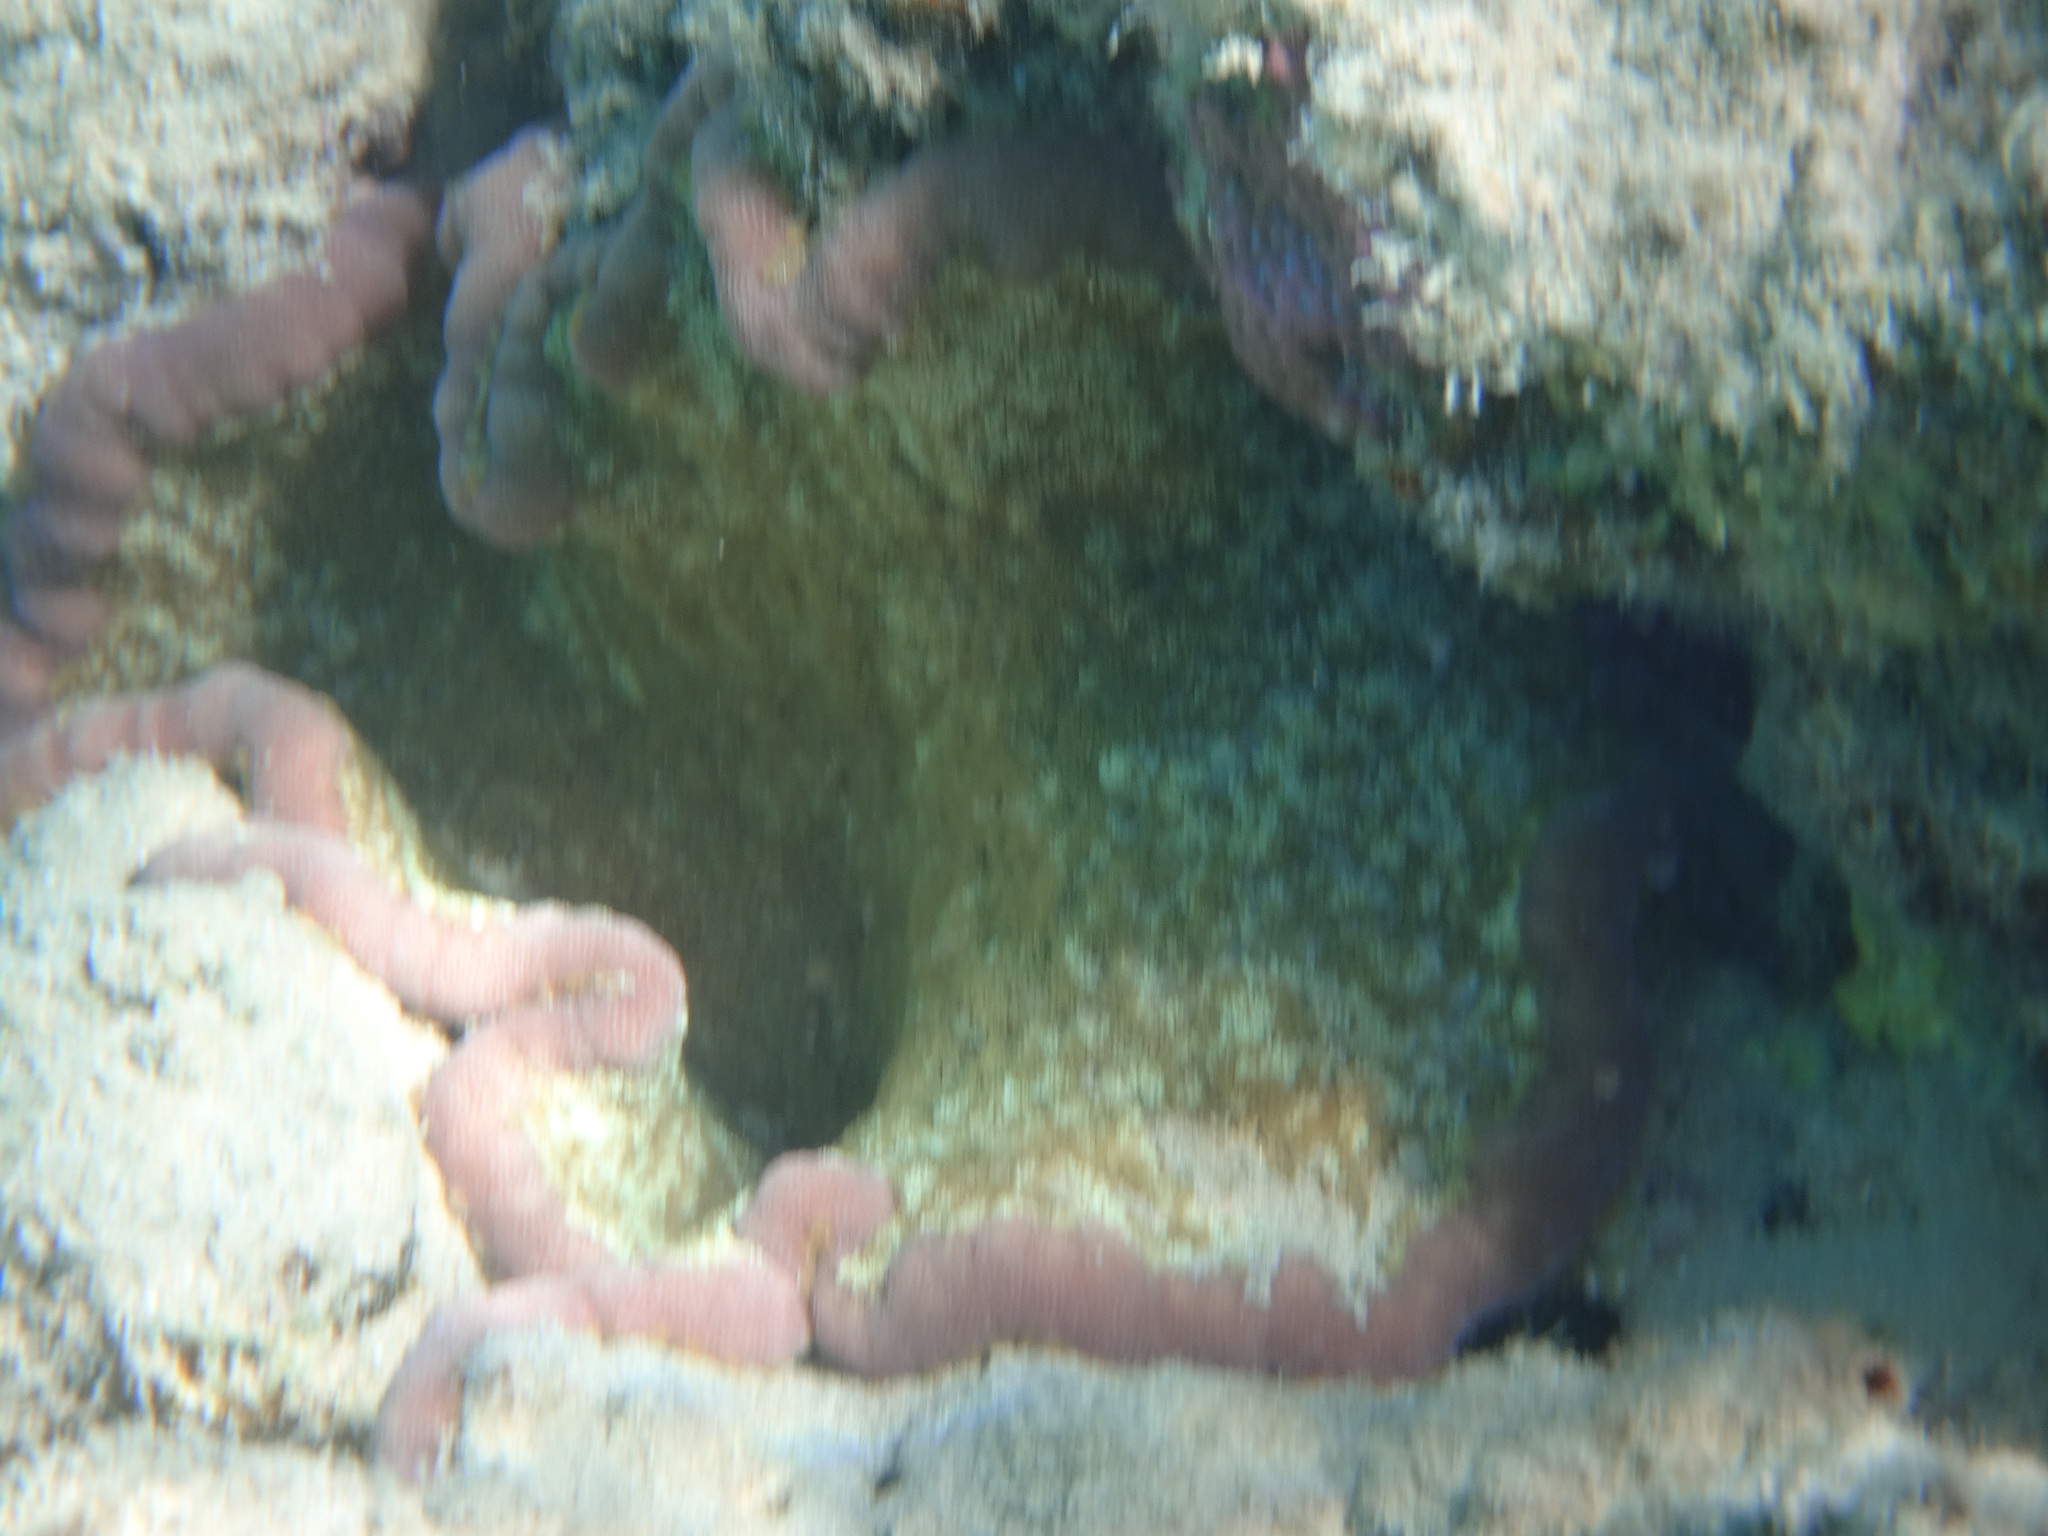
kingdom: Animalia
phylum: Cnidaria
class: Anthozoa
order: Actiniaria
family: Thalassianthidae
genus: Cryptodendrum
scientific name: Cryptodendrum adhaesivum
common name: Adhesive sea anemone
